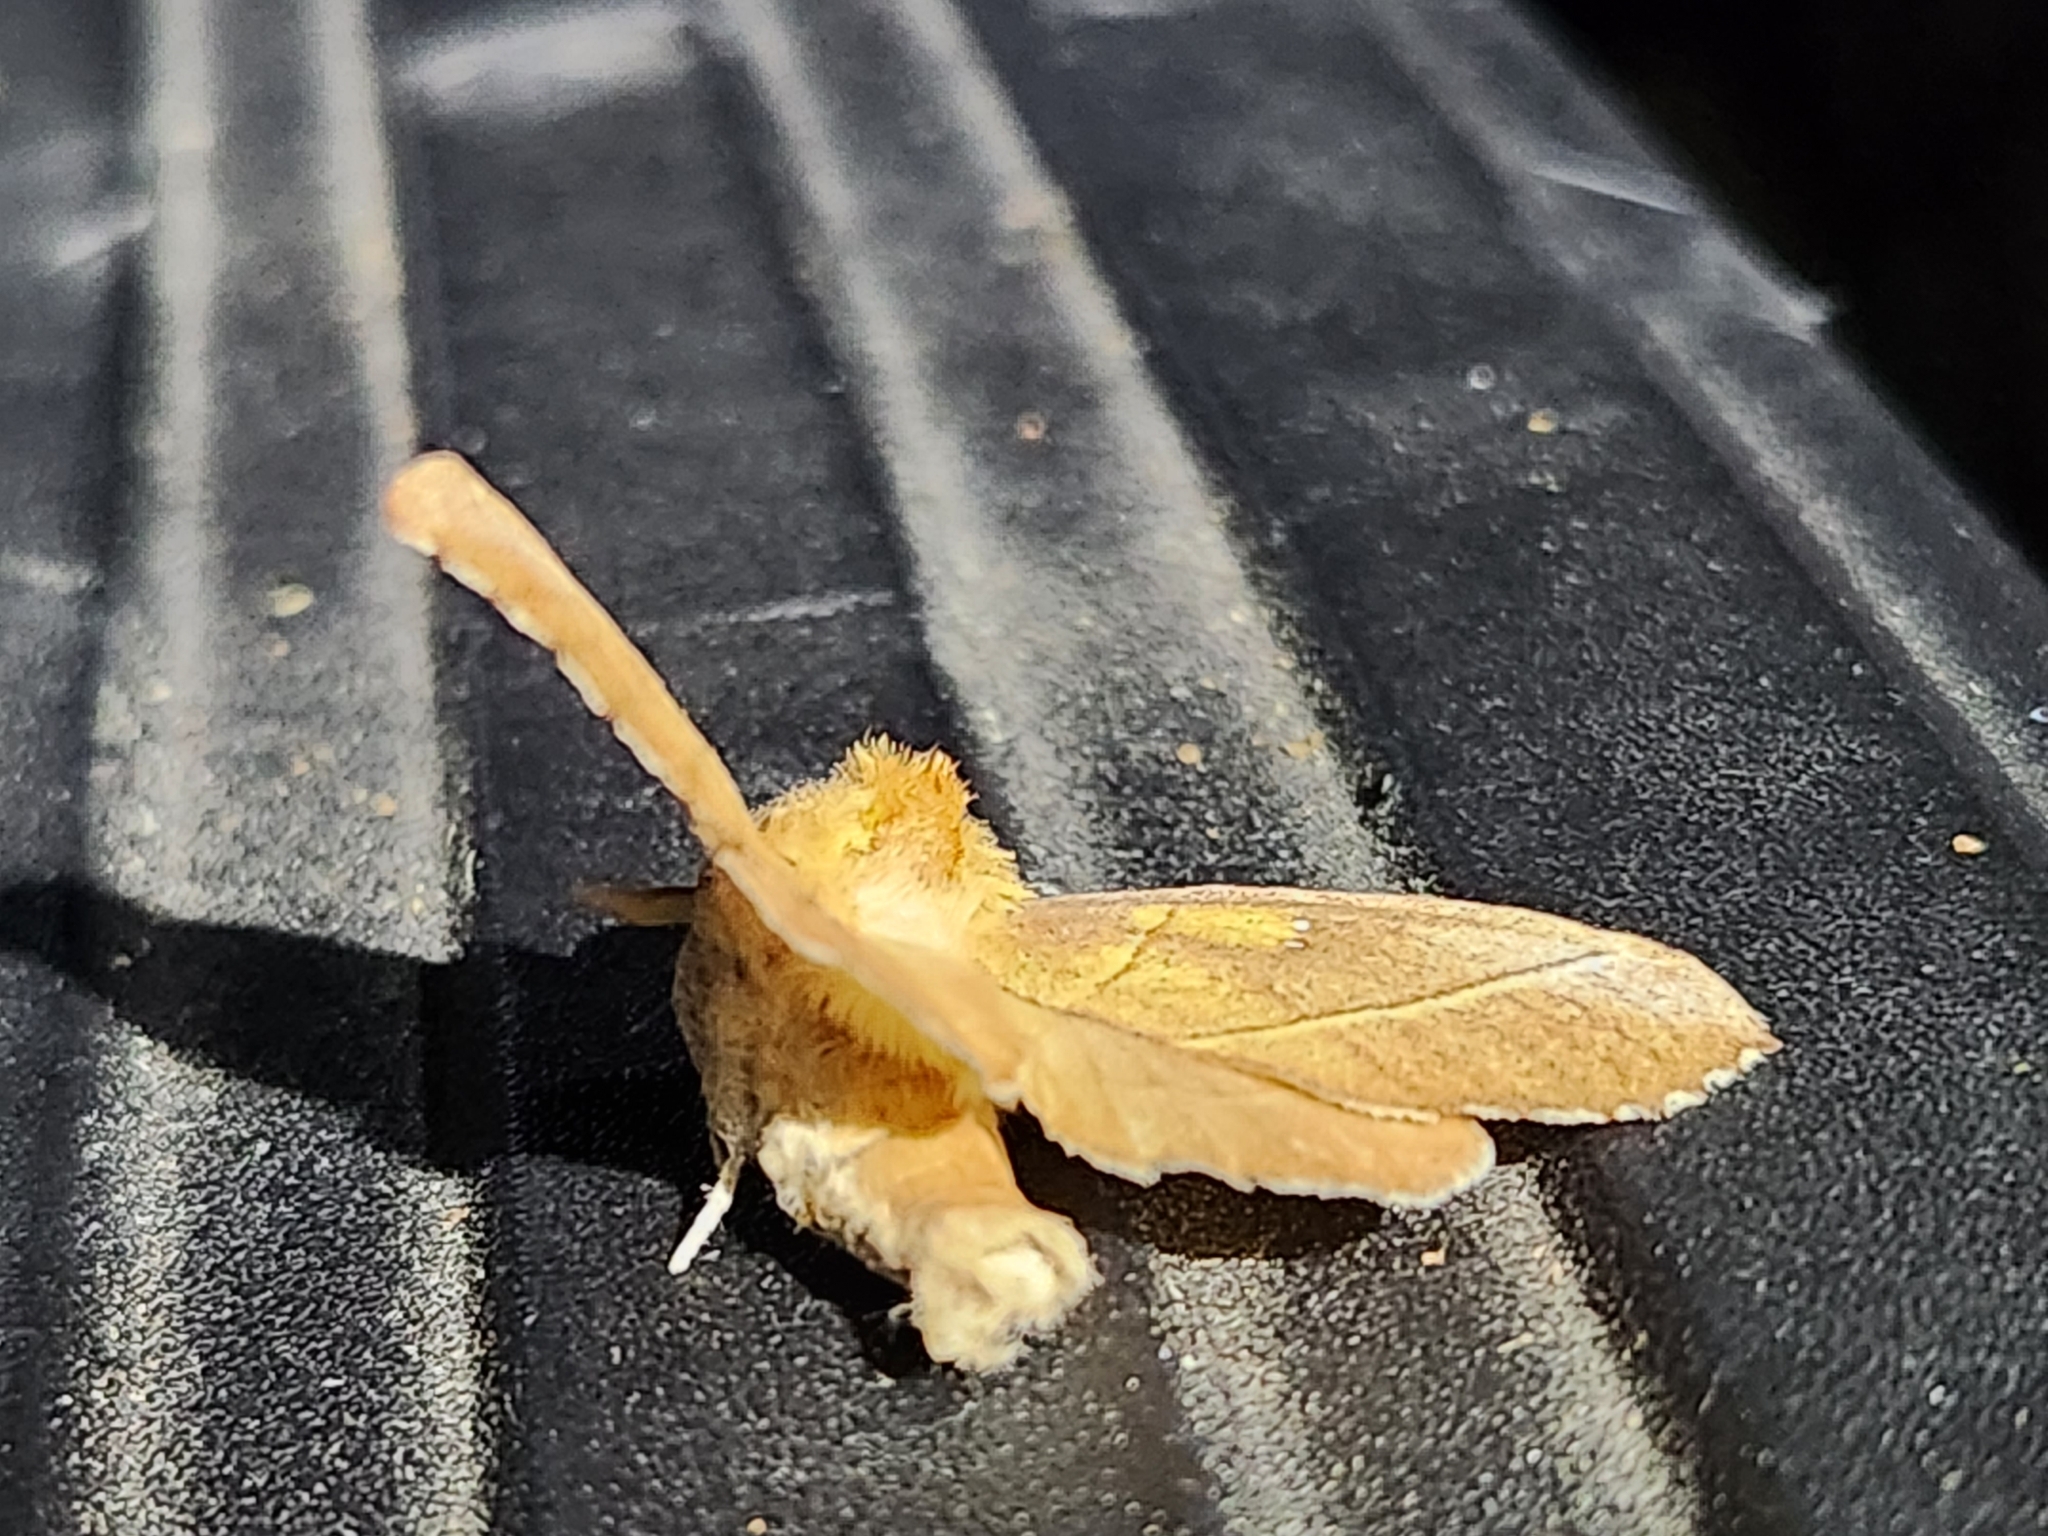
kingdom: Animalia
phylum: Arthropoda
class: Insecta
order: Lepidoptera
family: Notodontidae
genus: Nadata
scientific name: Nadata gibbosa
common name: White-dotted prominent
